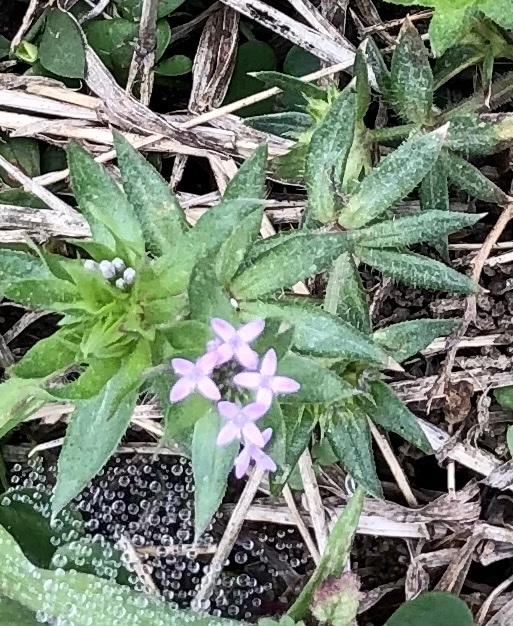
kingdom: Plantae
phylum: Tracheophyta
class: Magnoliopsida
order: Gentianales
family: Rubiaceae
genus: Sherardia
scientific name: Sherardia arvensis
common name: Field madder
